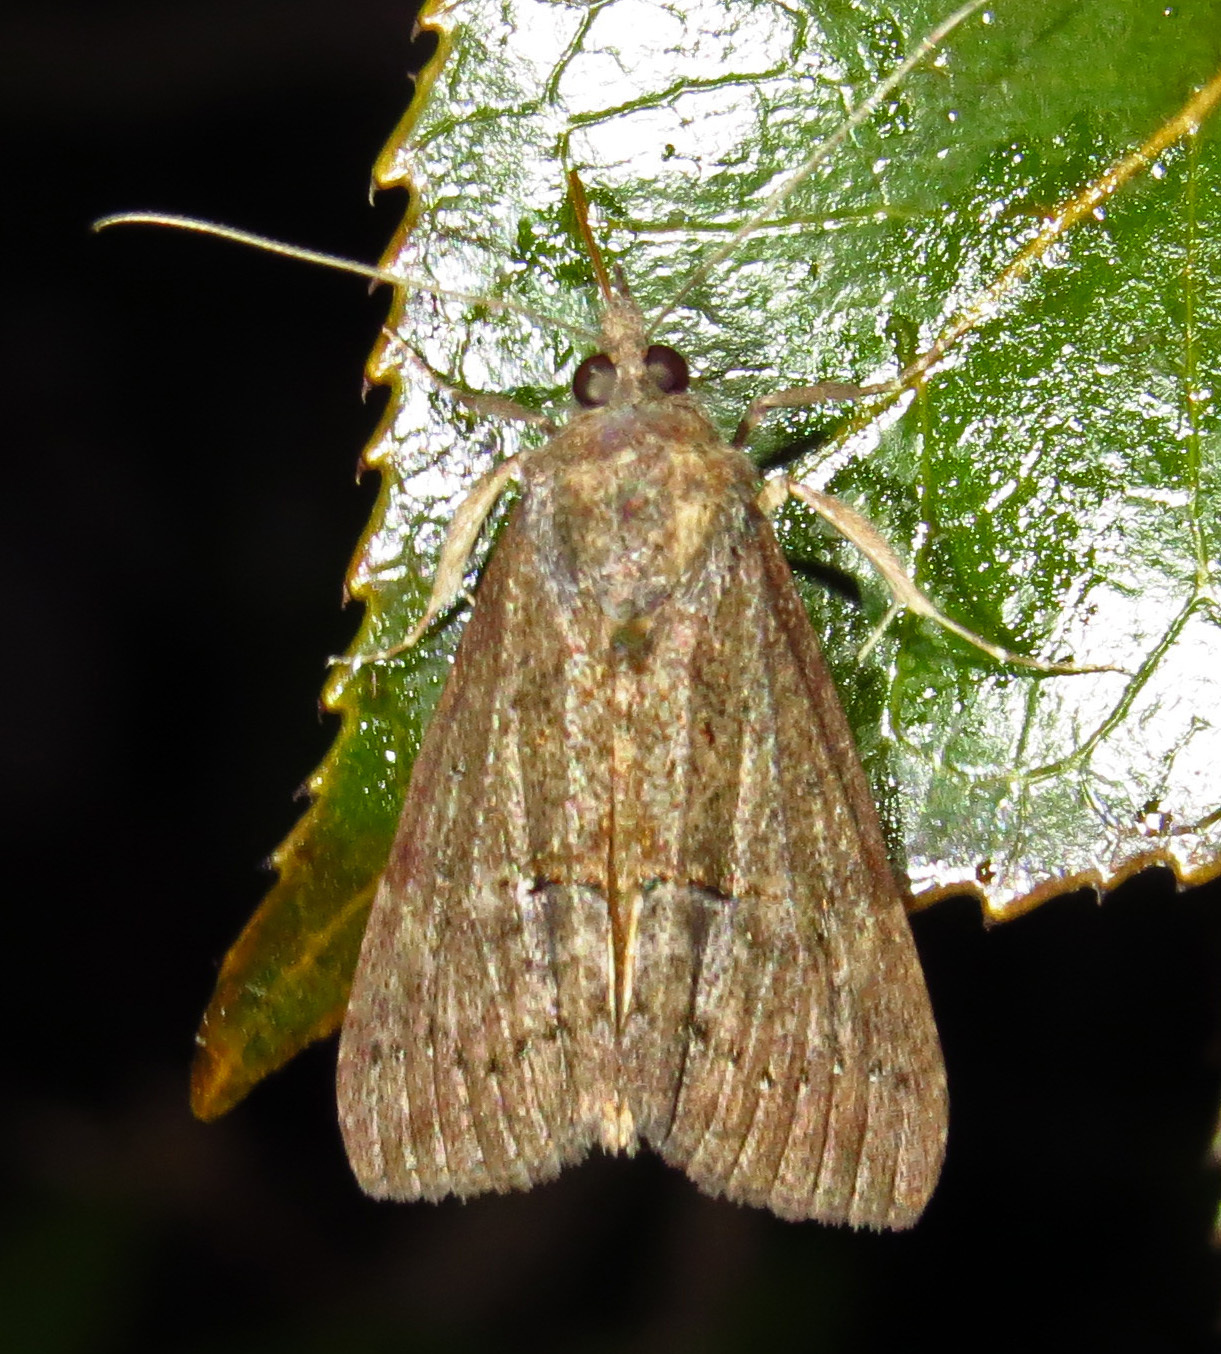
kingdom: Animalia
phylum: Arthropoda
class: Insecta
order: Lepidoptera
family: Erebidae
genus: Hypena
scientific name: Hypena scabra
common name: Green cloverworm
